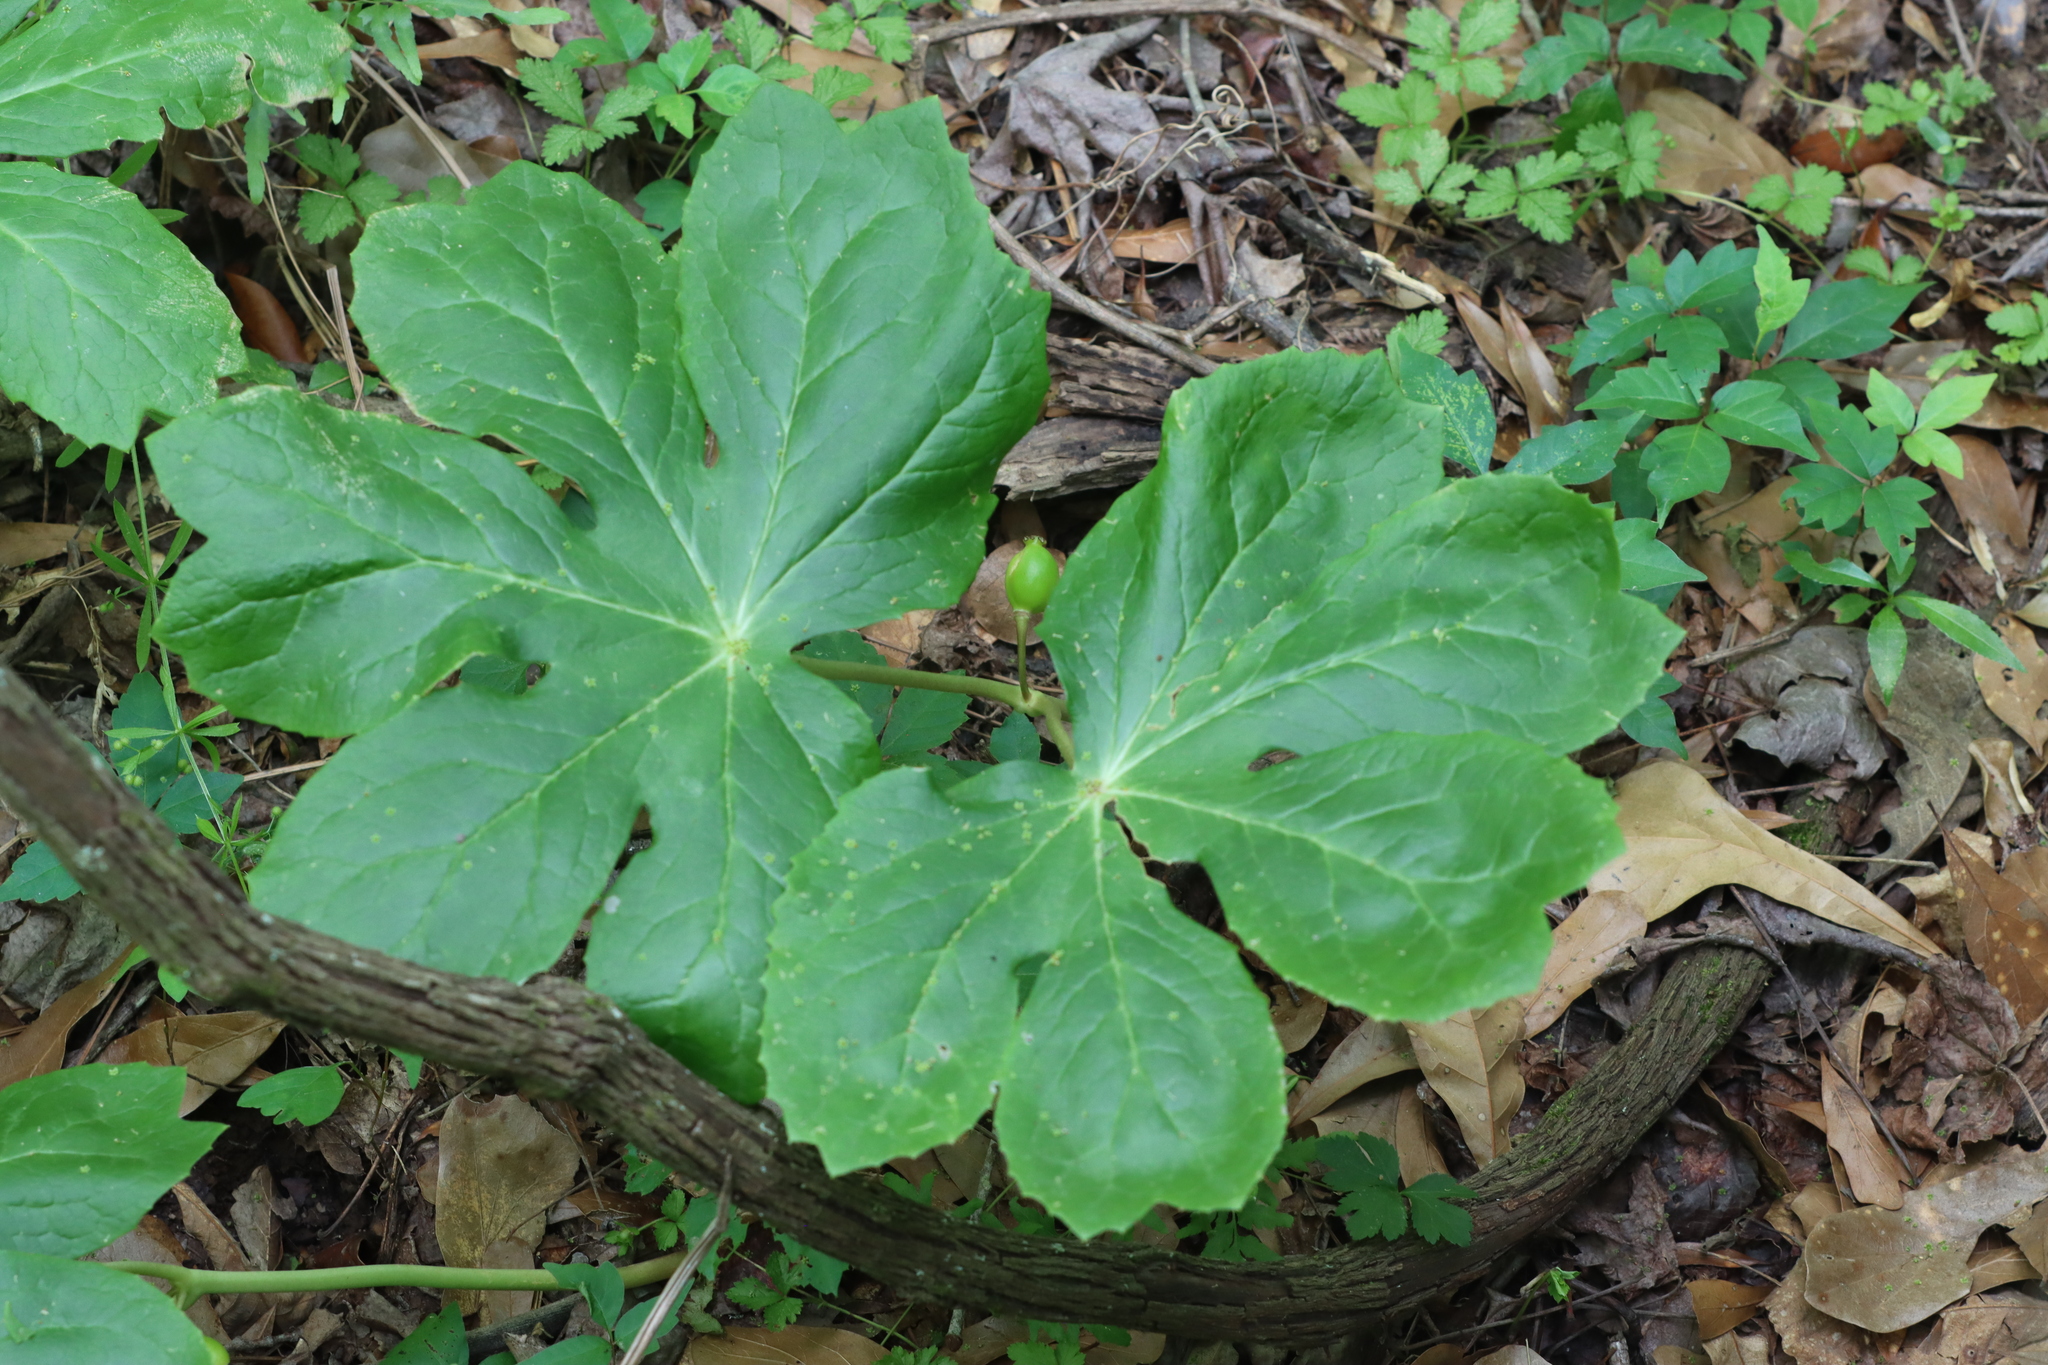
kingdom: Plantae
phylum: Tracheophyta
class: Magnoliopsida
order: Ranunculales
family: Berberidaceae
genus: Podophyllum
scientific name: Podophyllum peltatum
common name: Wild mandrake
